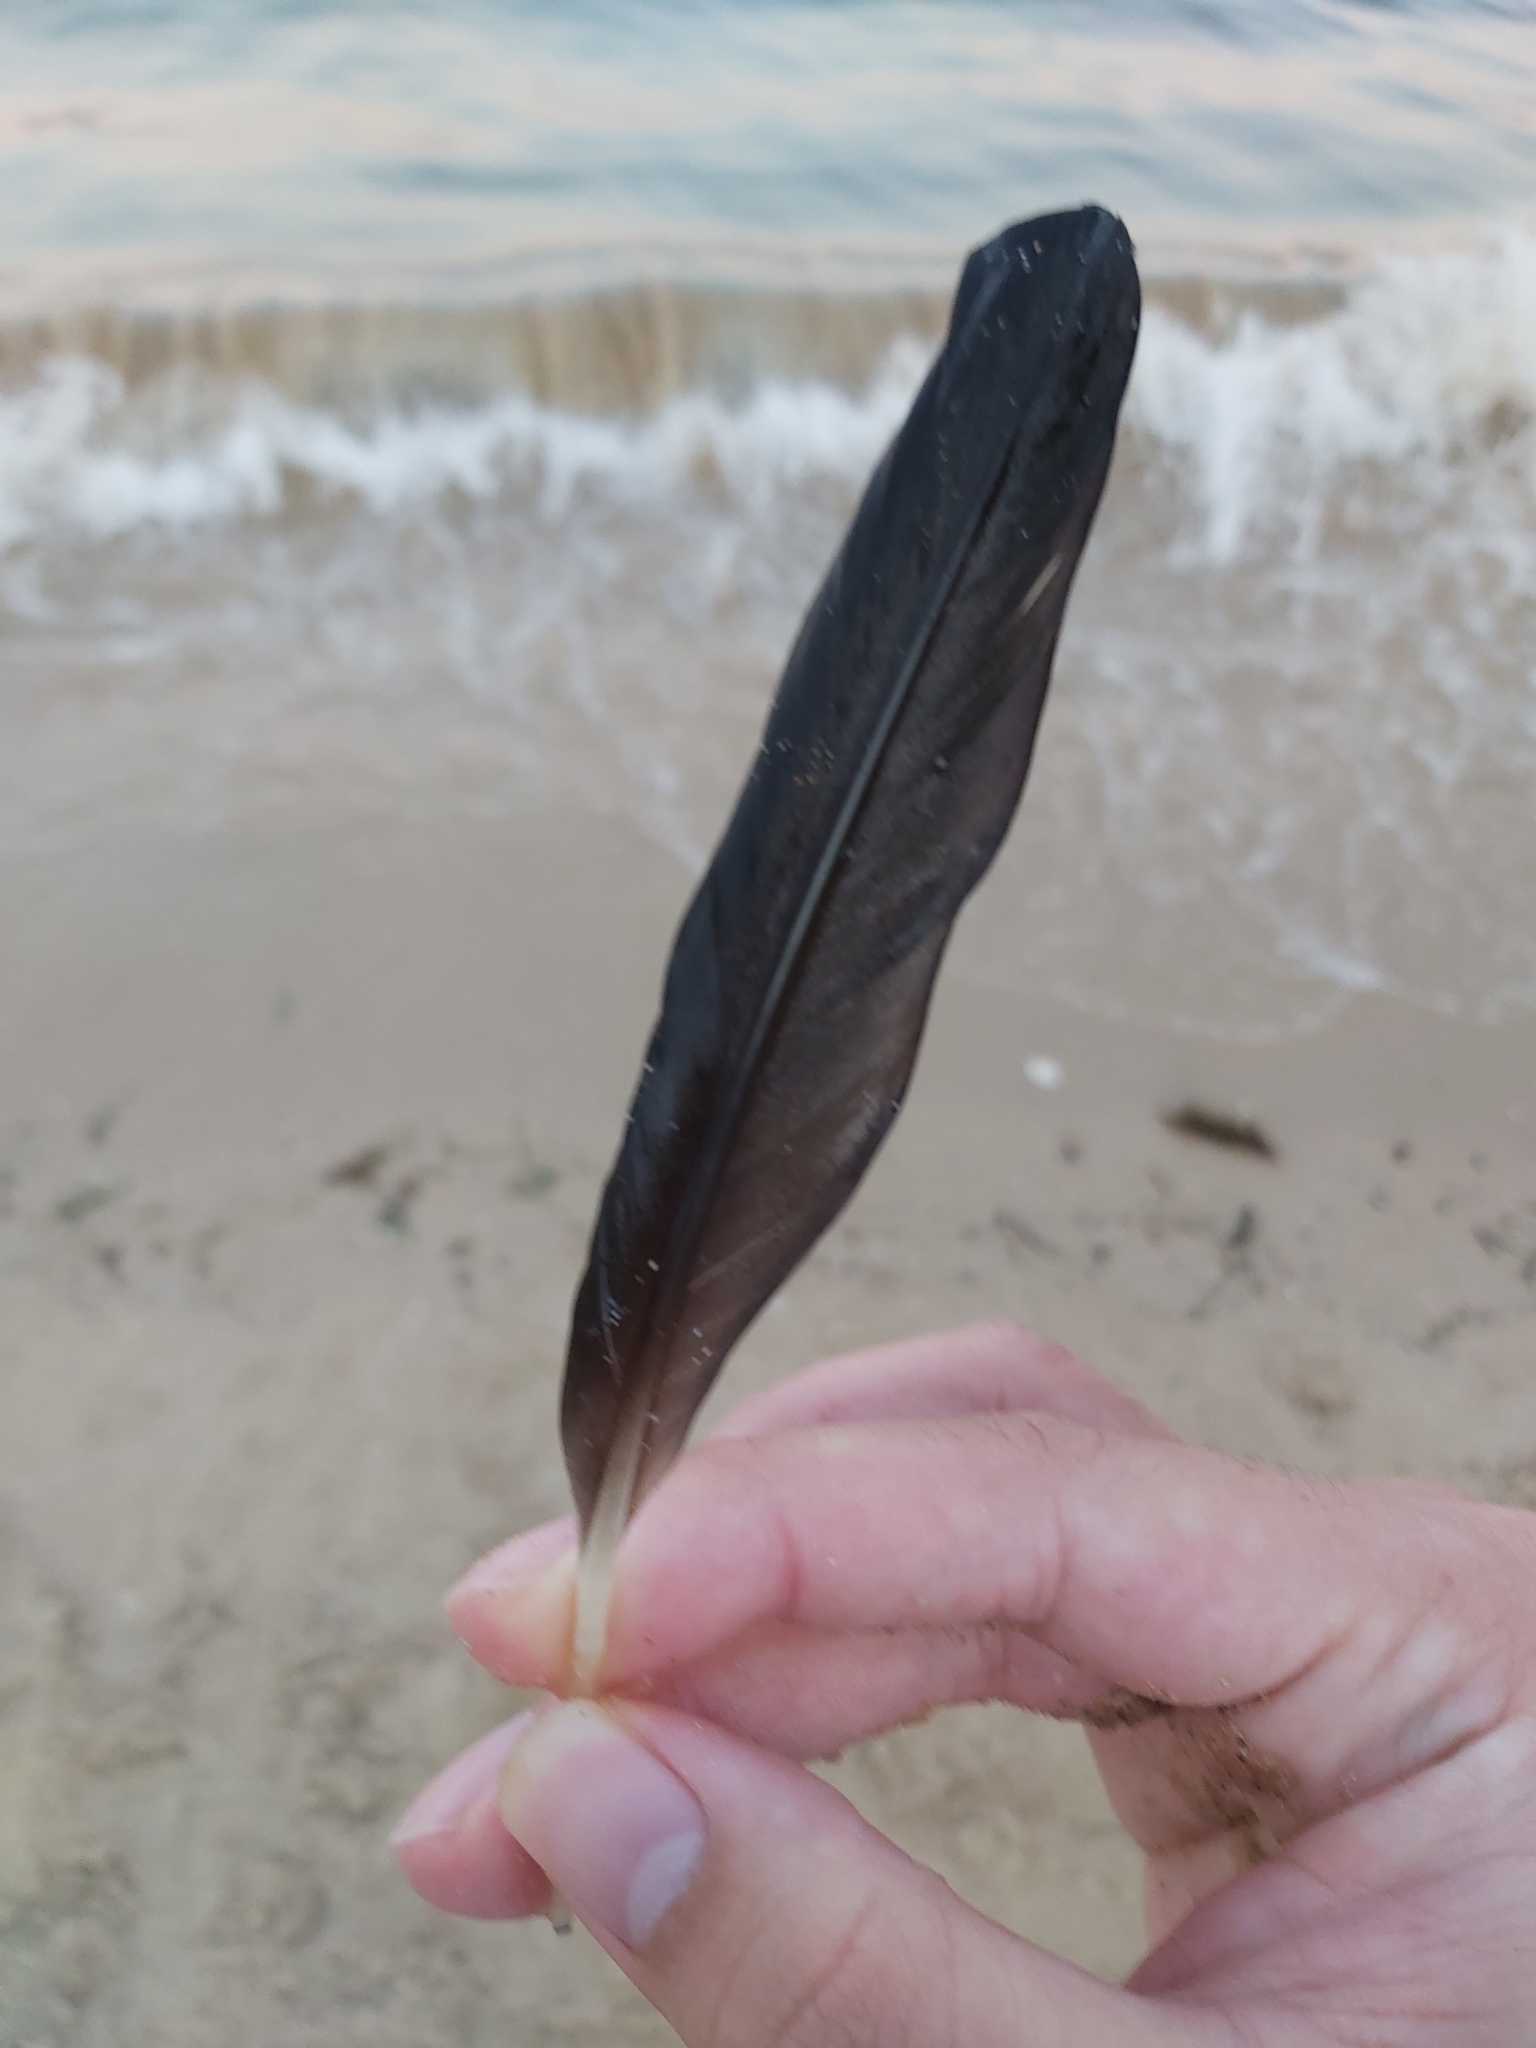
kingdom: Animalia
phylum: Chordata
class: Aves
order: Suliformes
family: Phalacrocoracidae
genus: Phalacrocorax
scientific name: Phalacrocorax sulcirostris
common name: Little black cormorant
